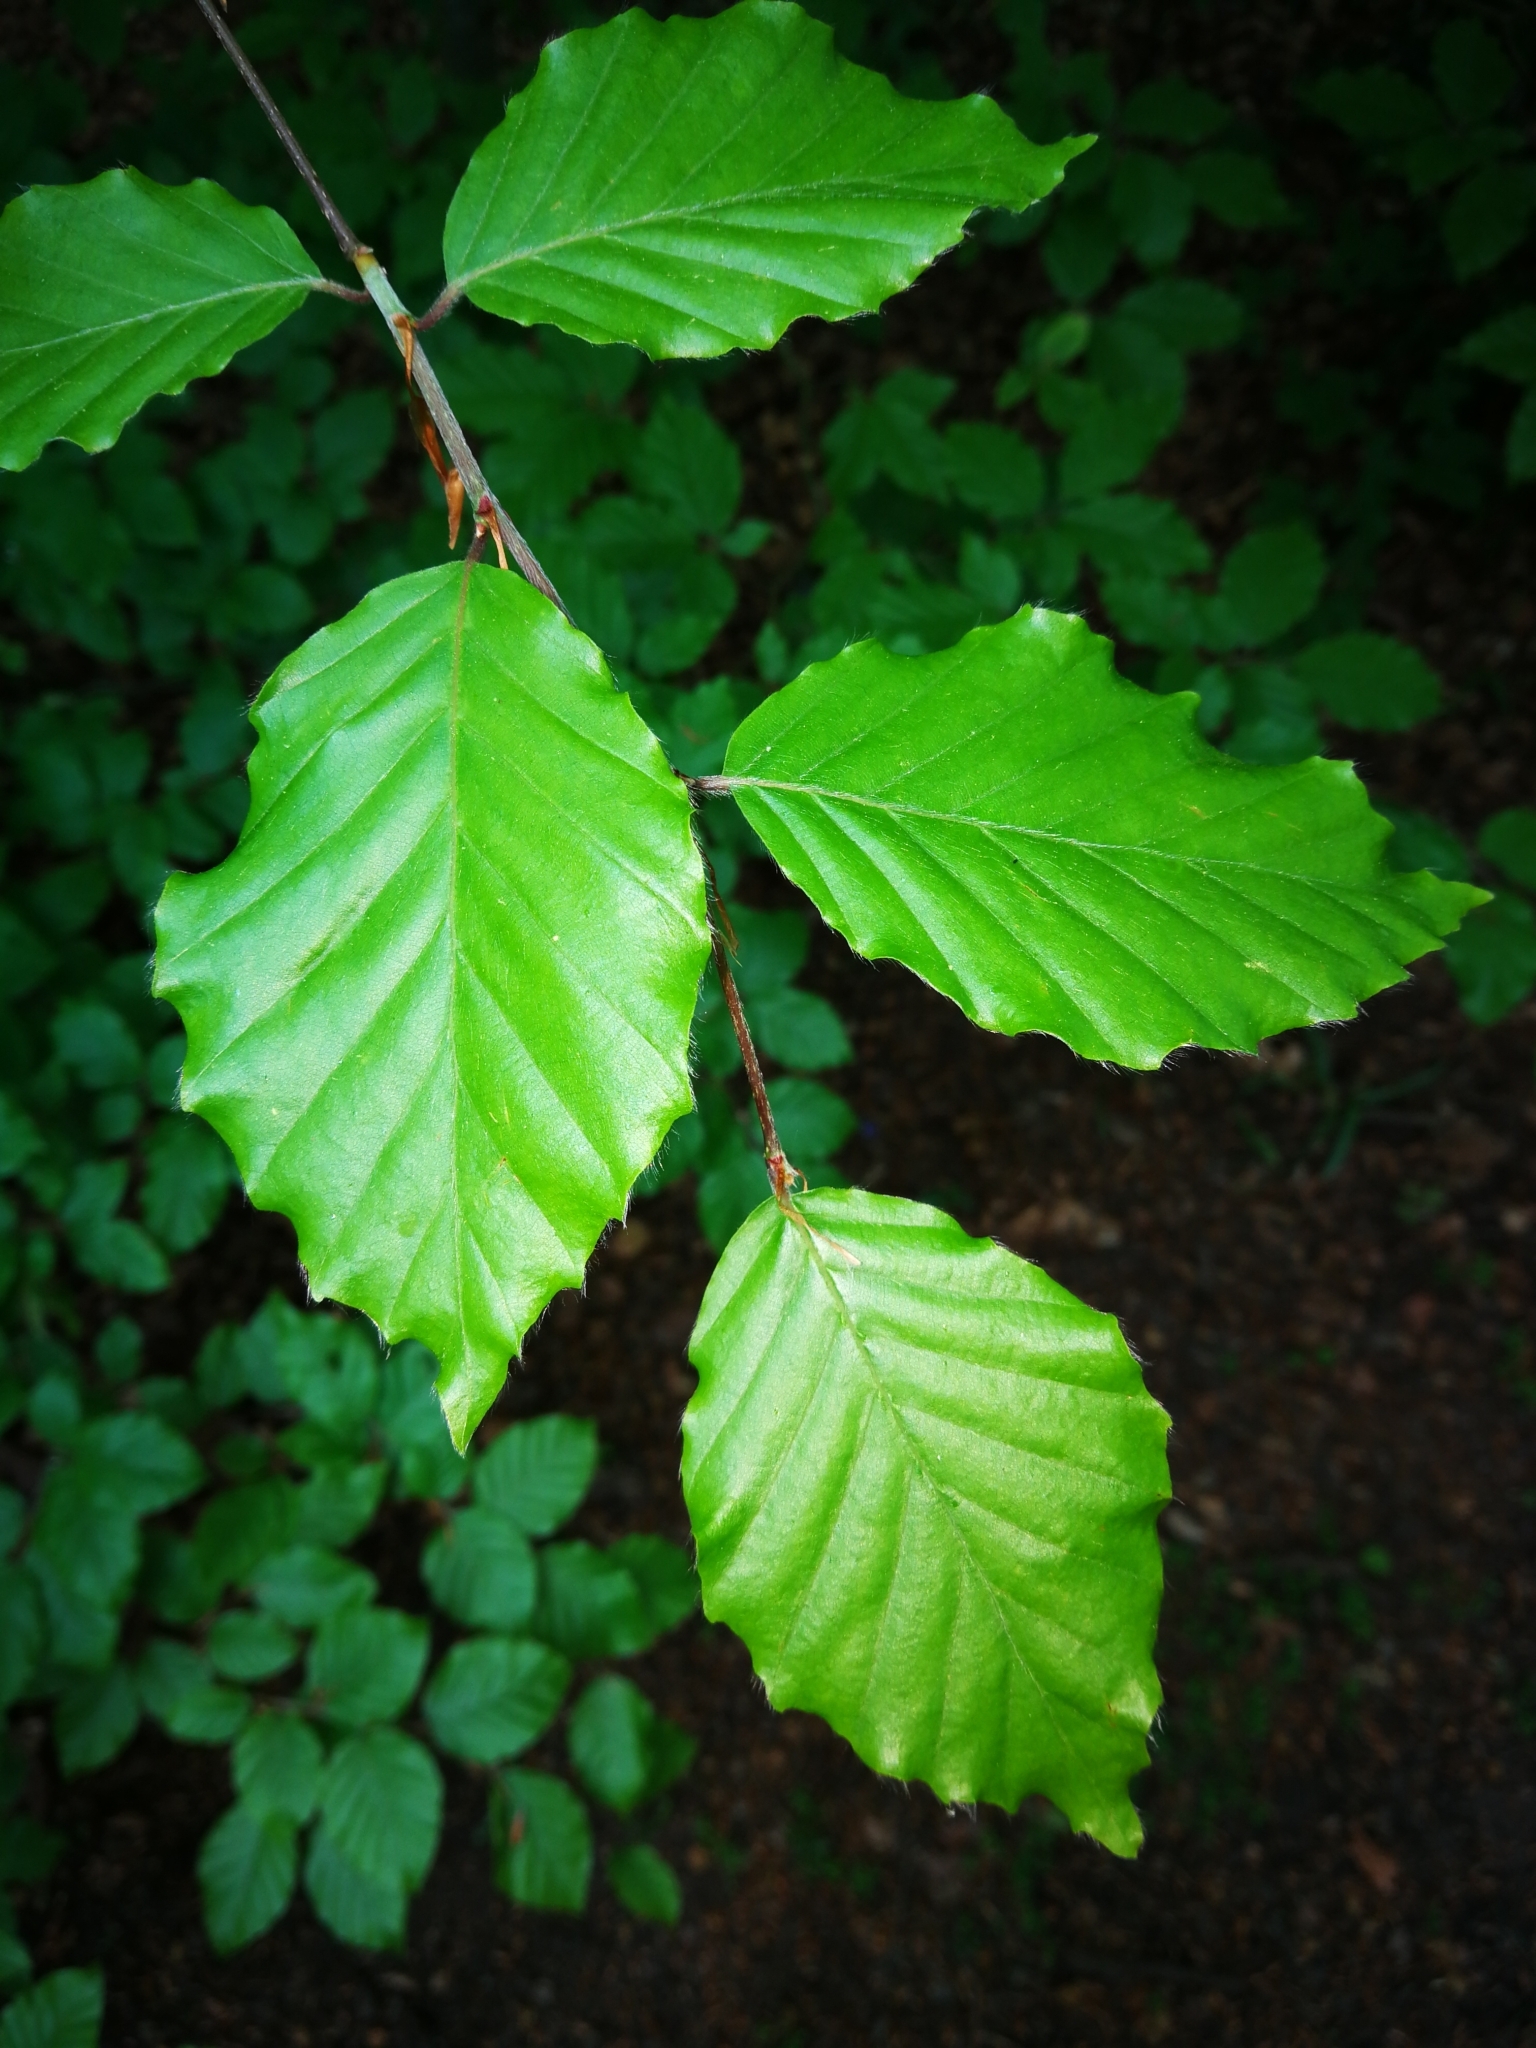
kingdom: Plantae
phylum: Tracheophyta
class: Magnoliopsida
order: Fagales
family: Fagaceae
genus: Fagus
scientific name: Fagus sylvatica
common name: Beech
